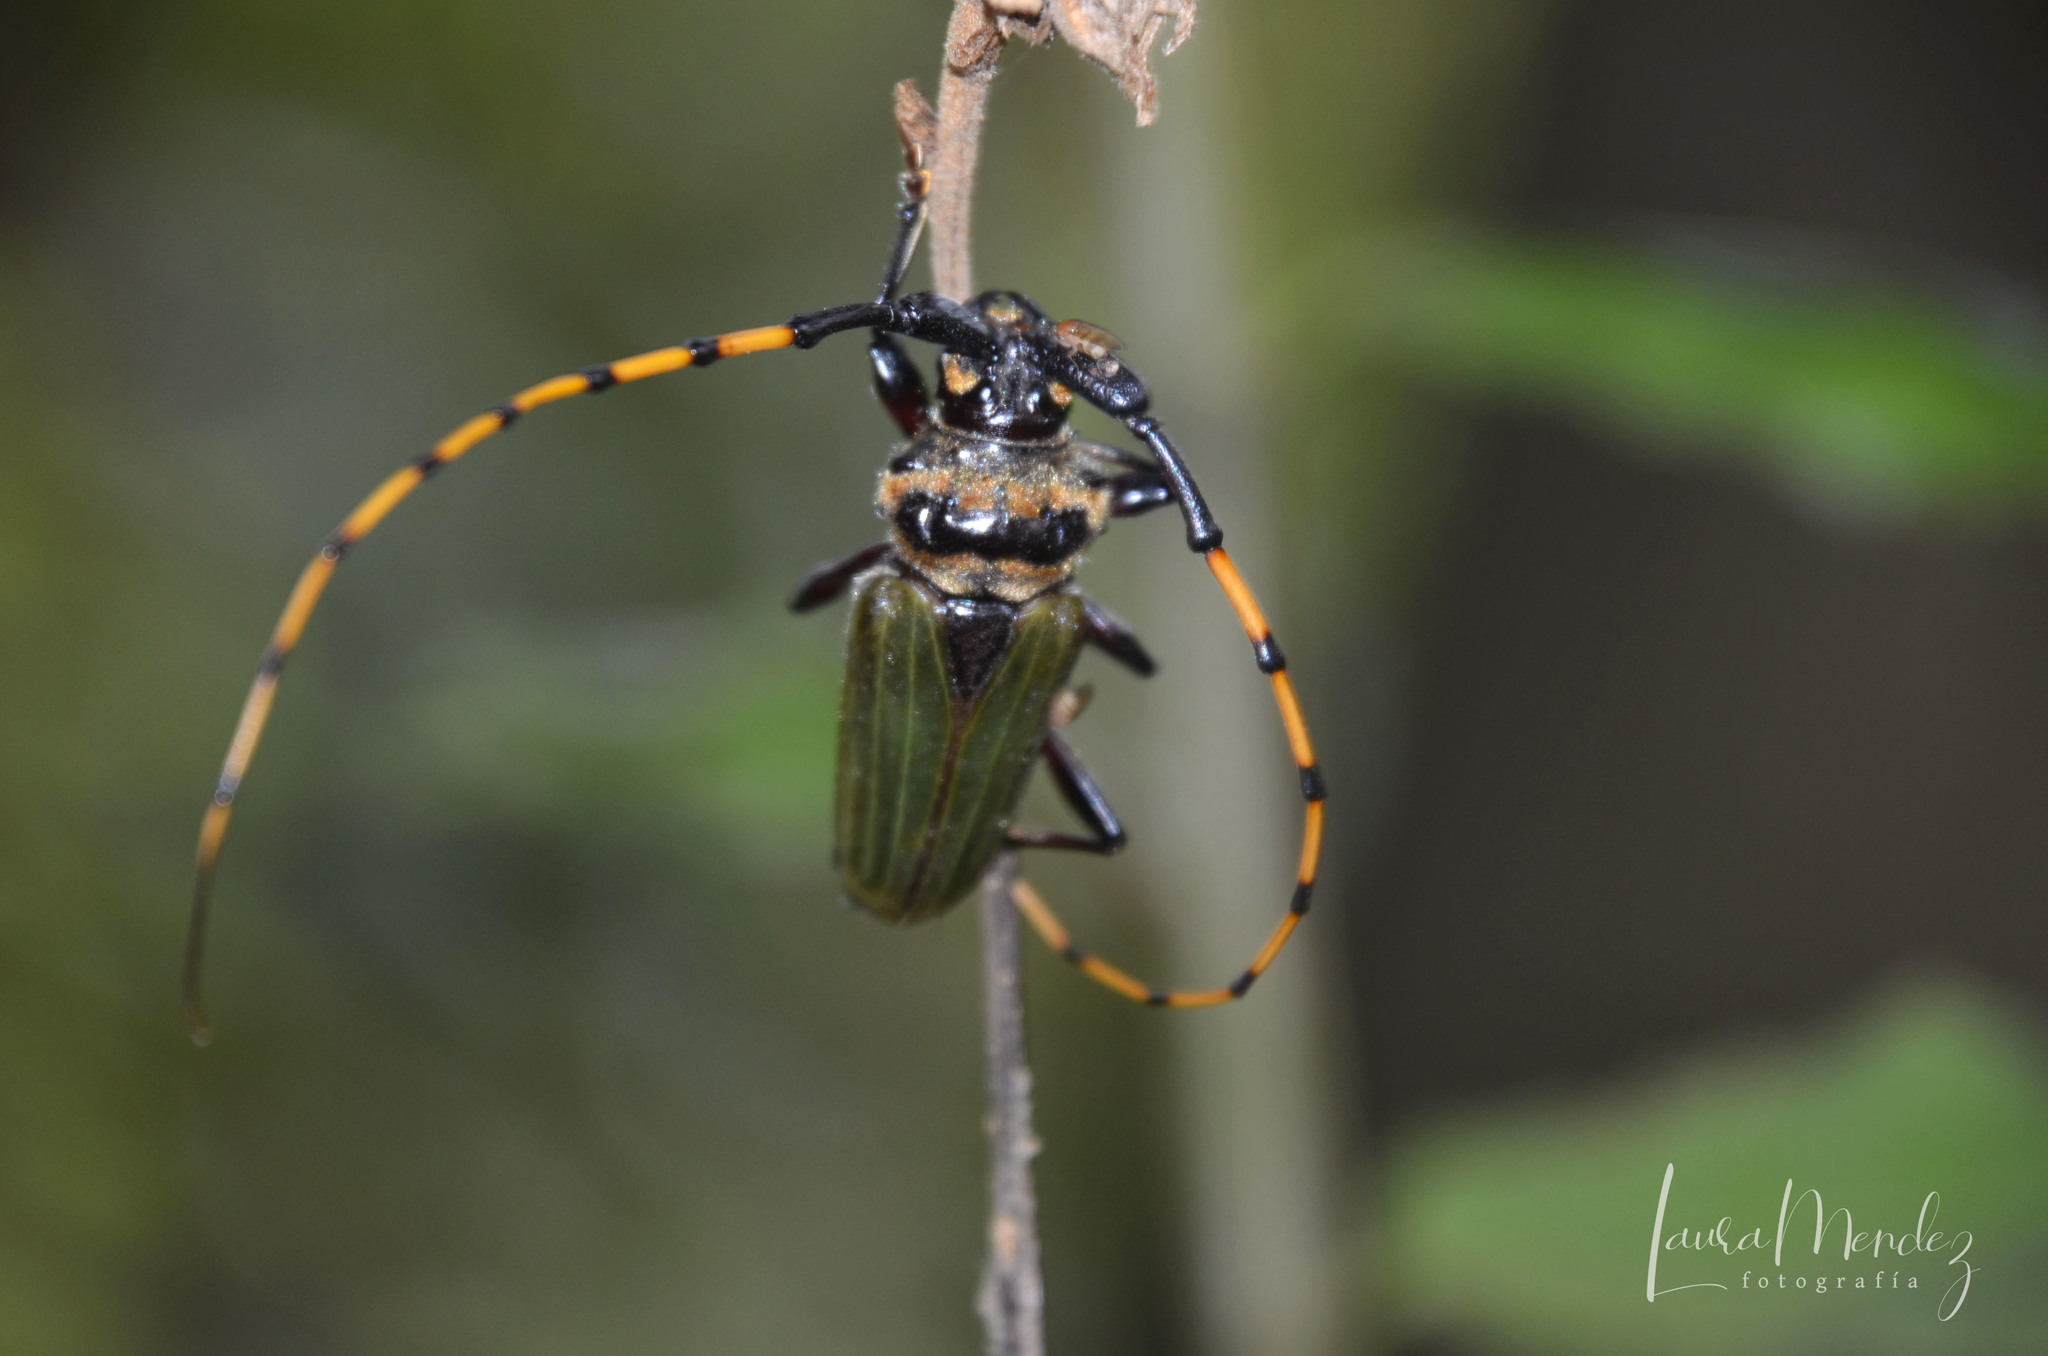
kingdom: Animalia
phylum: Arthropoda
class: Insecta
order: Coleoptera
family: Cerambycidae
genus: Retrachydes
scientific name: Retrachydes thoracicus
